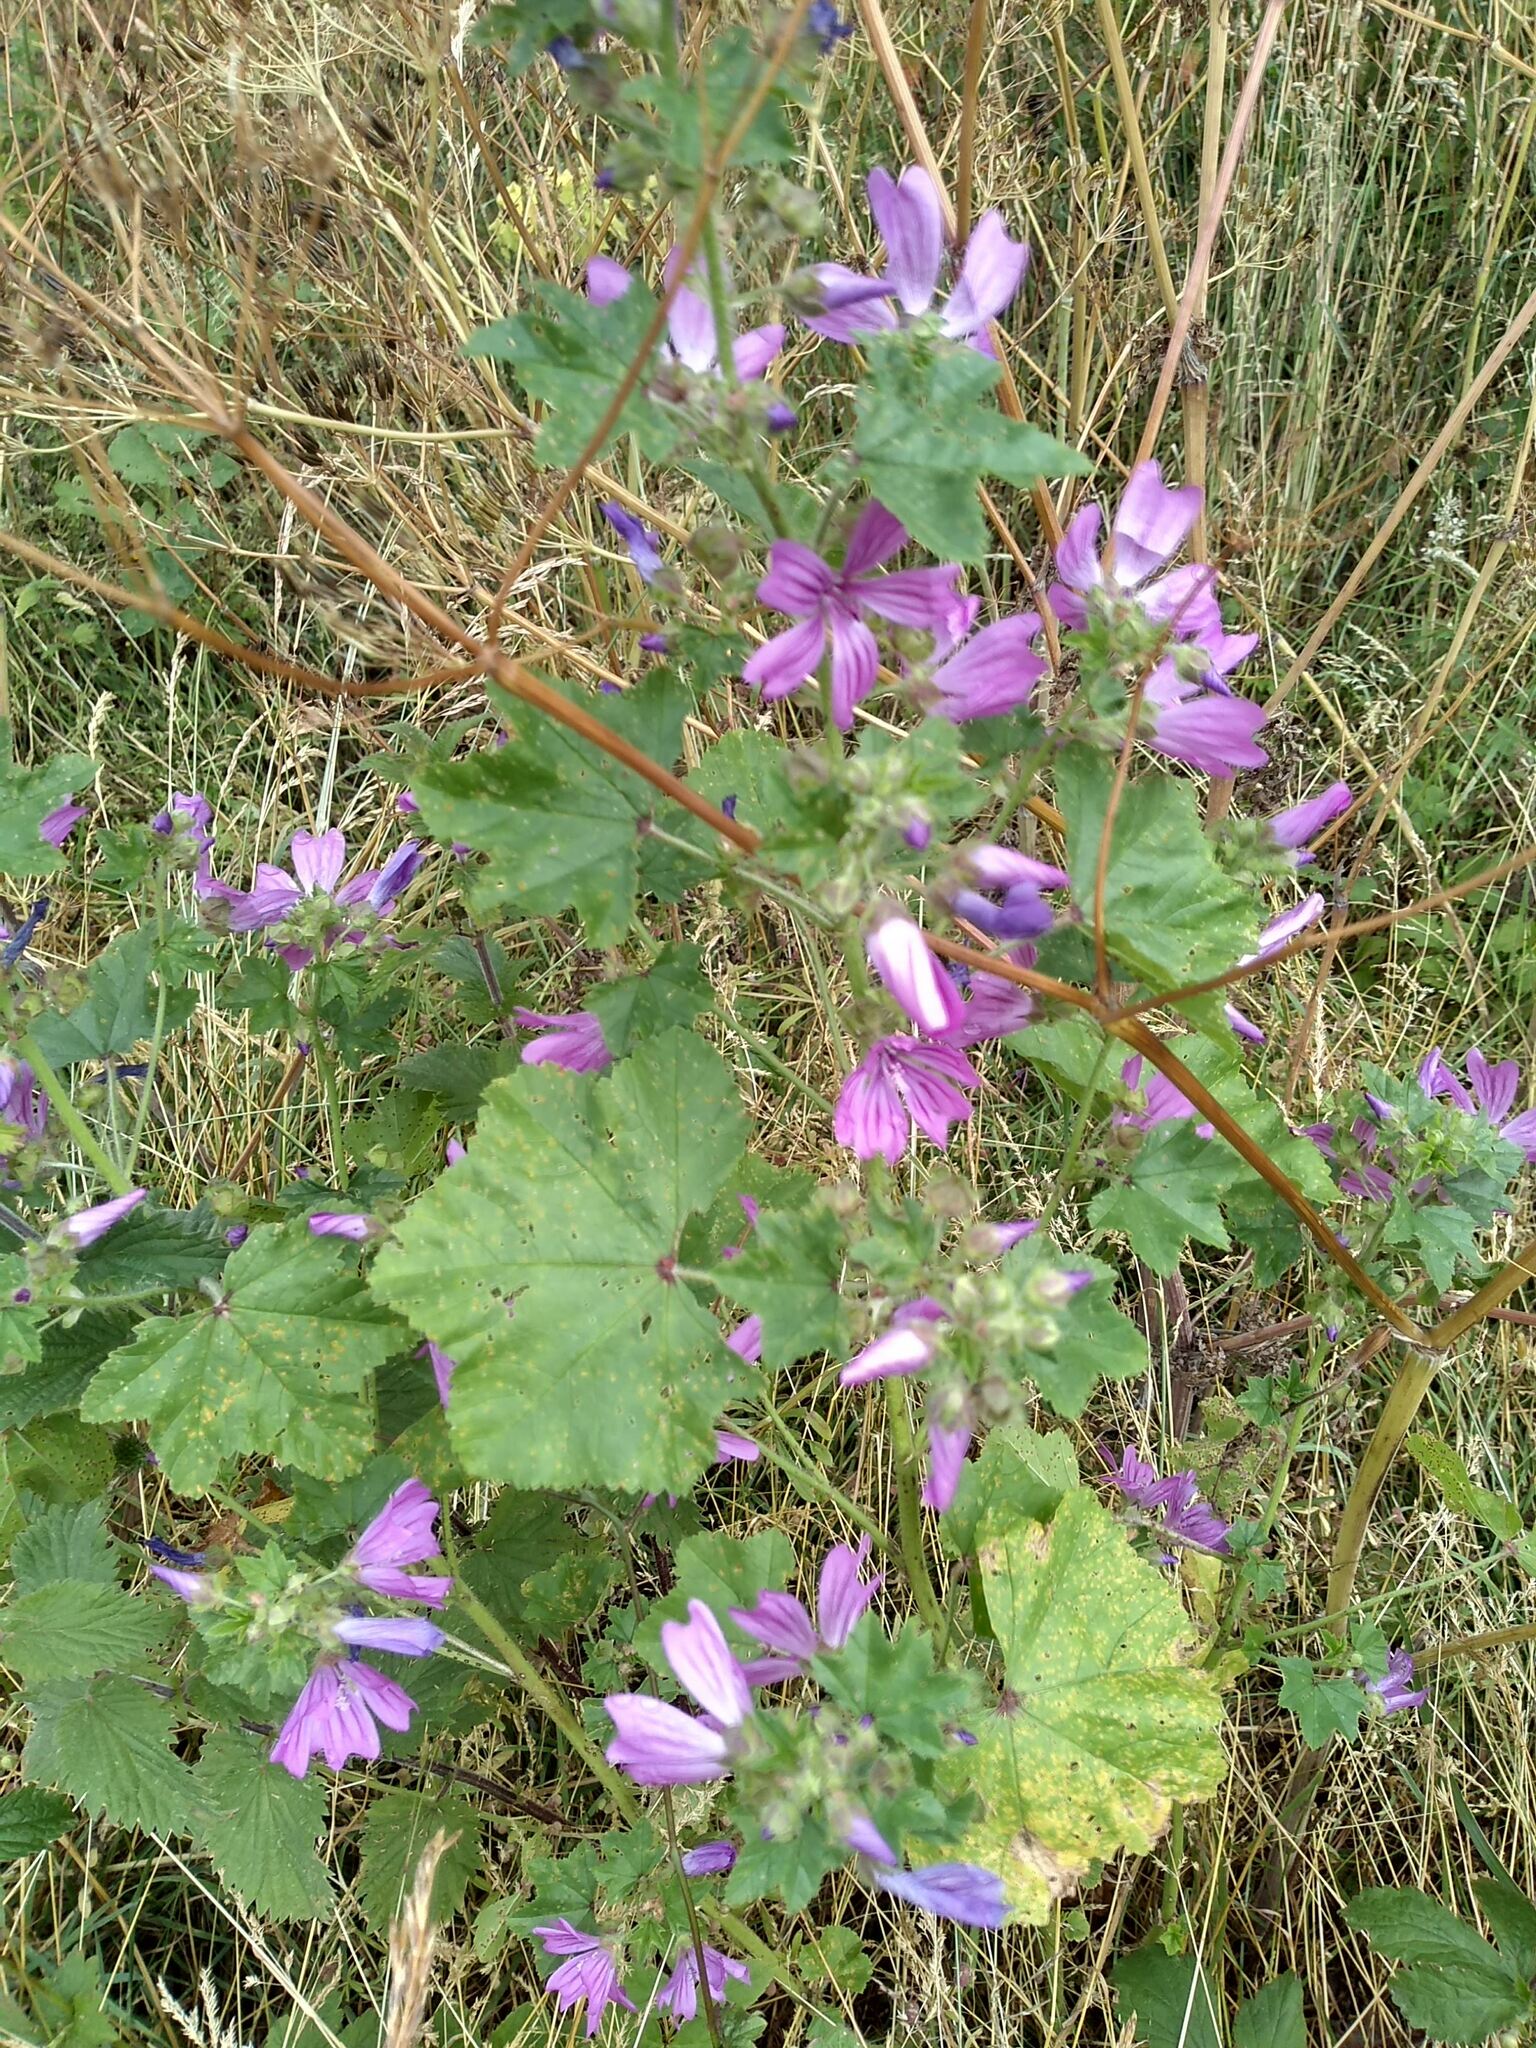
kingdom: Plantae
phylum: Tracheophyta
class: Magnoliopsida
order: Malvales
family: Malvaceae
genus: Malva
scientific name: Malva sylvestris
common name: Common mallow
